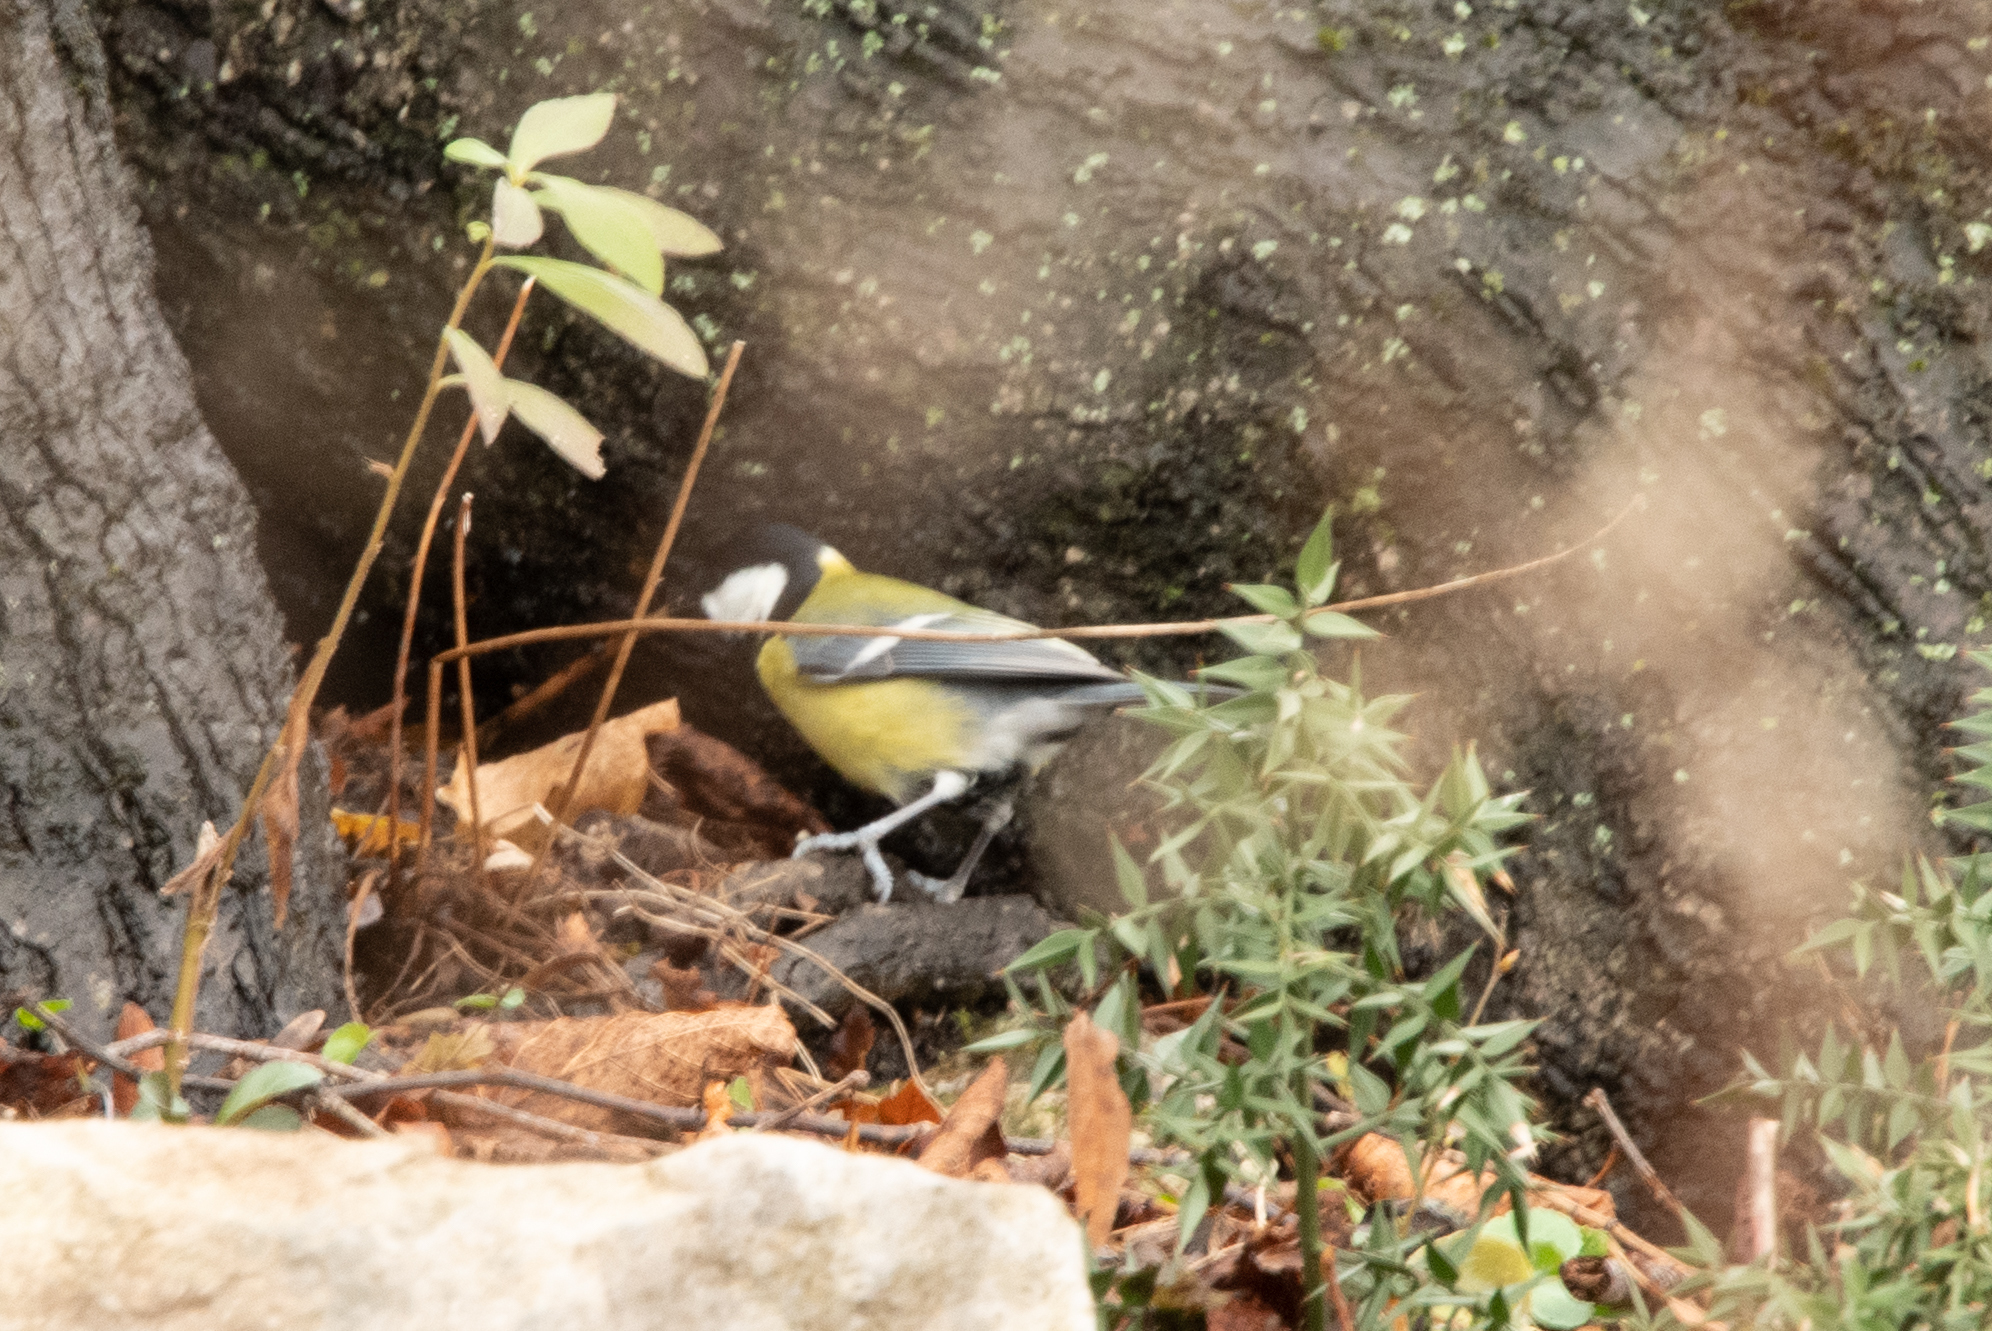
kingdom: Animalia
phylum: Chordata
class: Aves
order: Passeriformes
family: Paridae
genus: Parus
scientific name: Parus major
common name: Great tit
